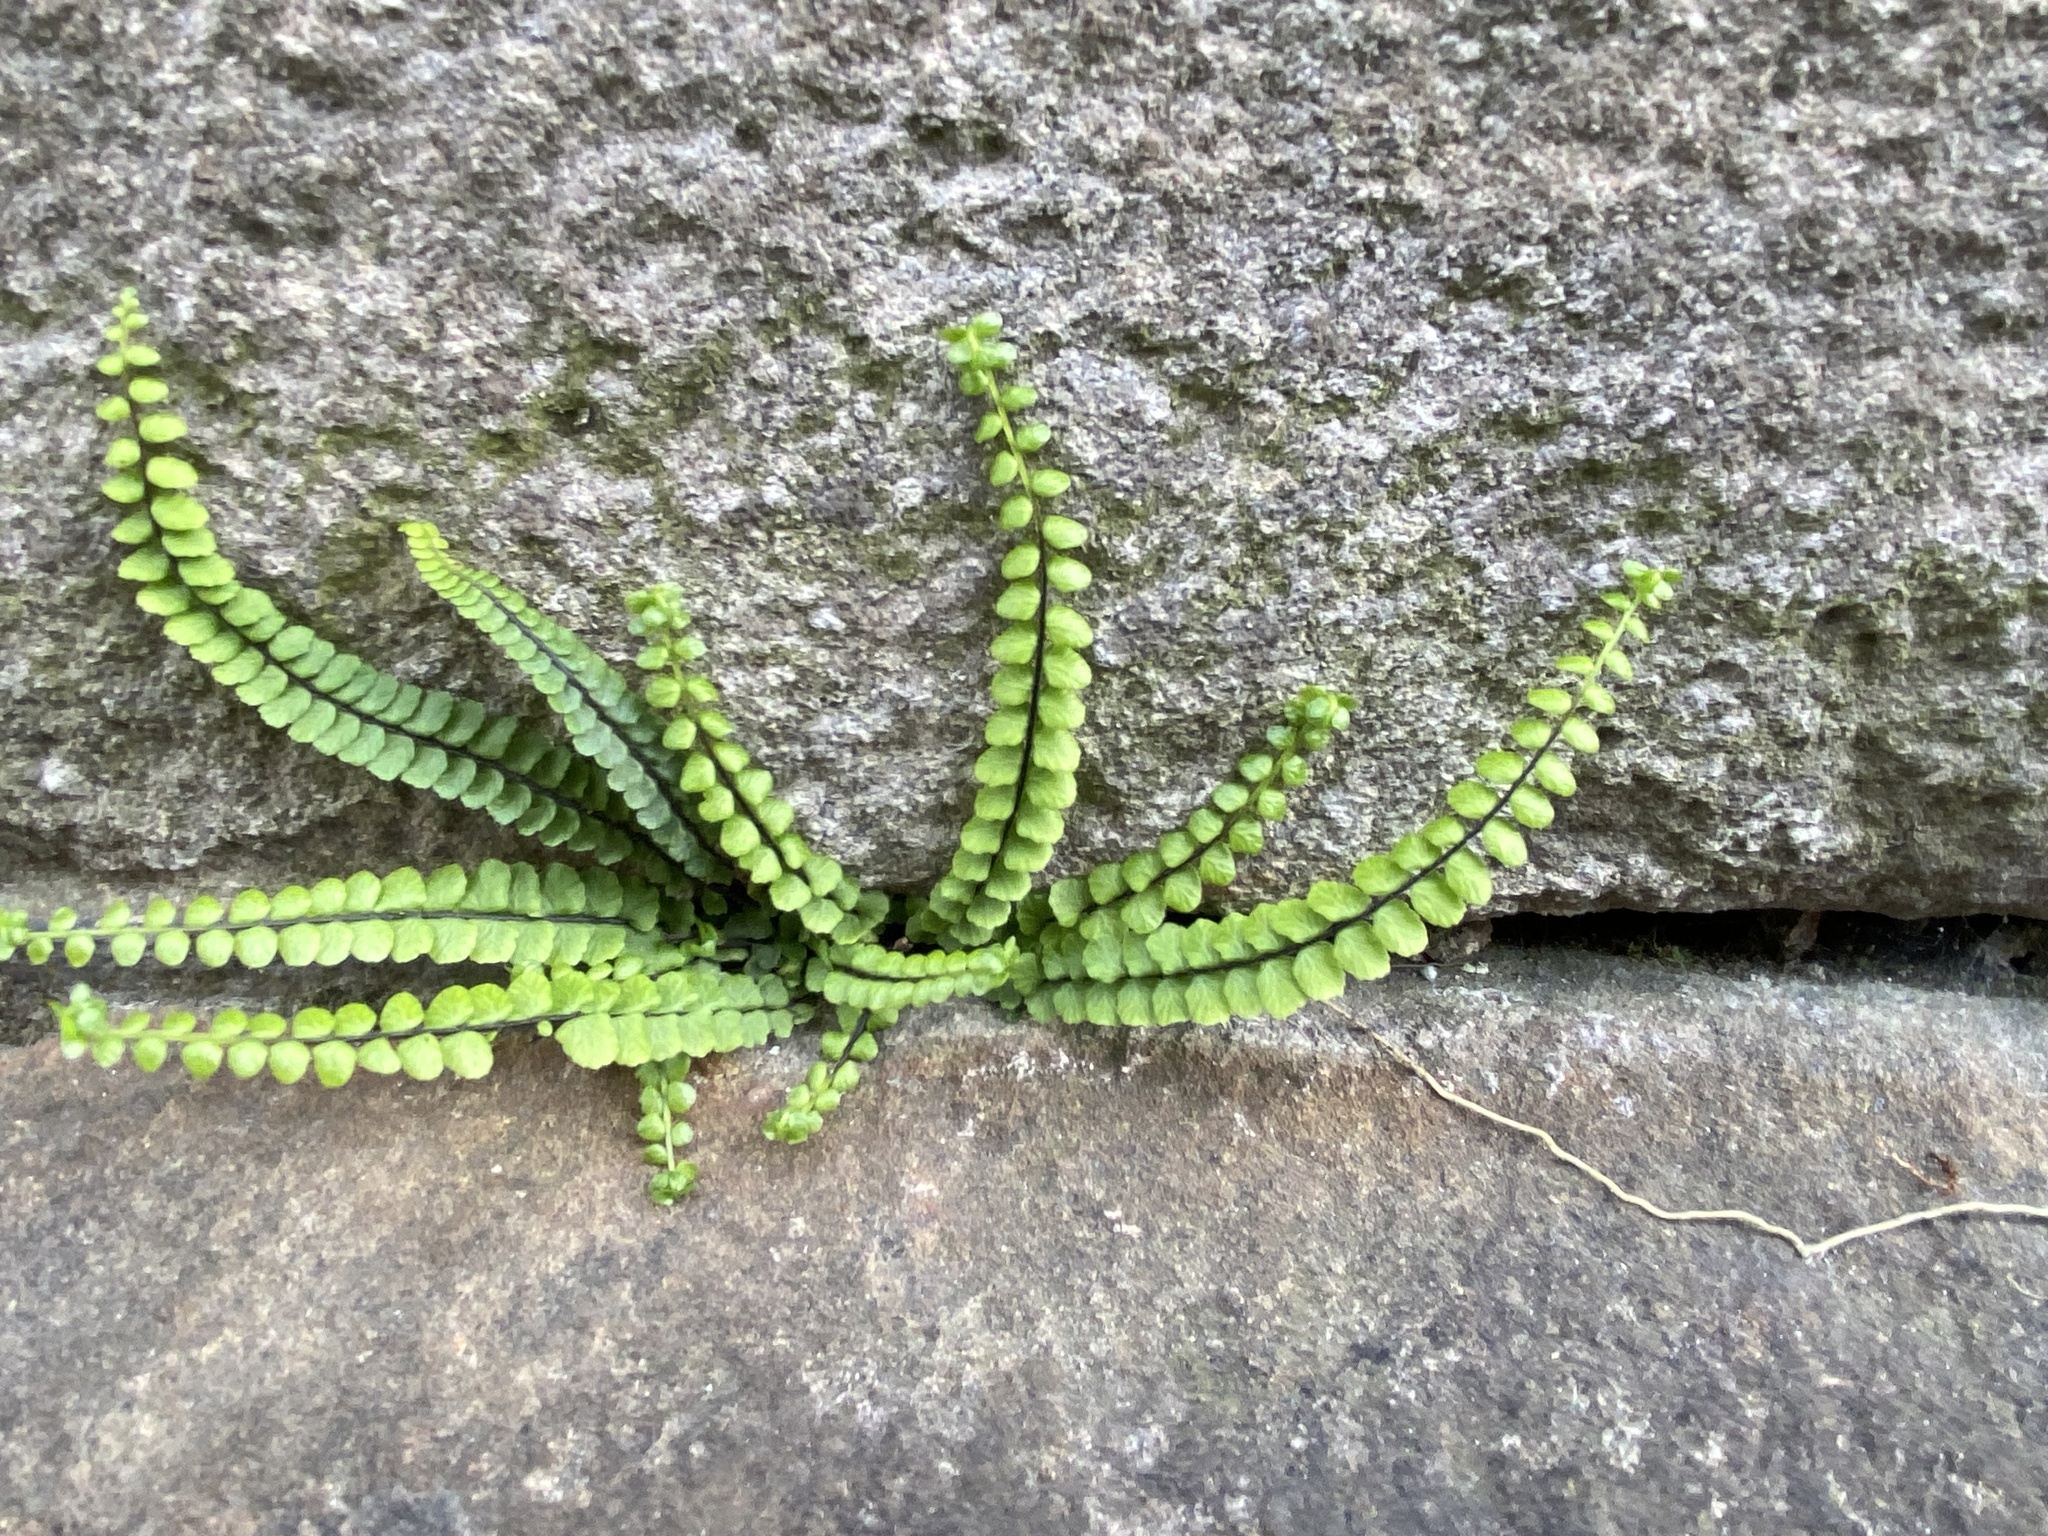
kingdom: Plantae
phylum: Tracheophyta
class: Polypodiopsida
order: Polypodiales
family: Aspleniaceae
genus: Asplenium
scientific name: Asplenium trichomanes
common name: Maidenhair spleenwort
